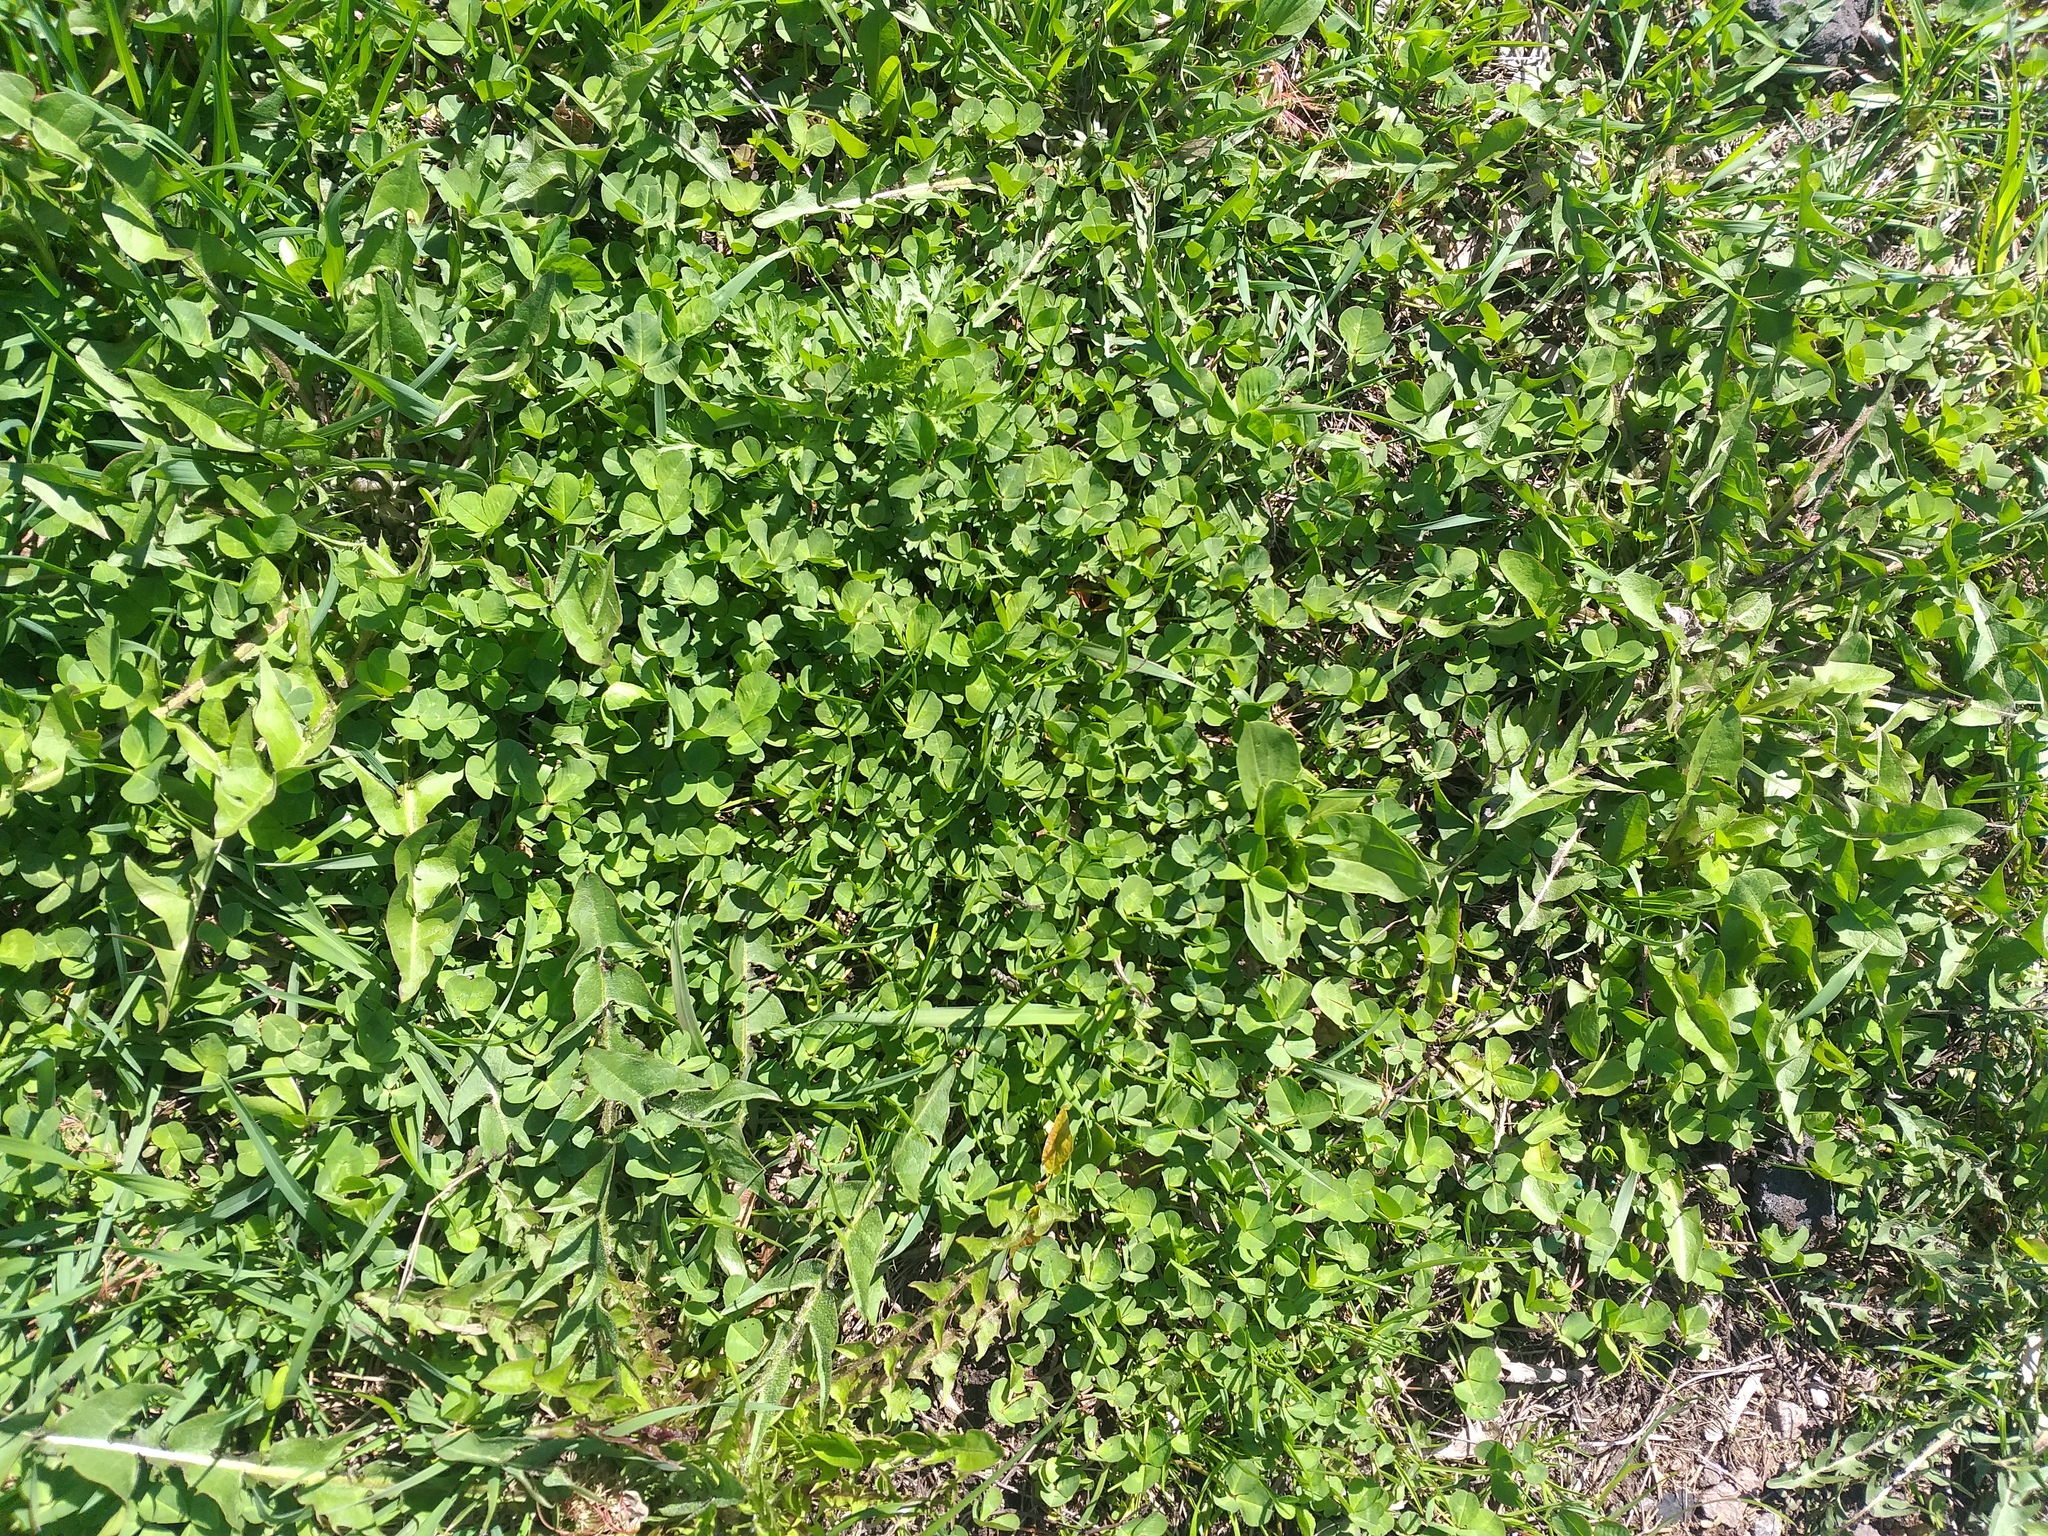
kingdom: Plantae
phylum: Tracheophyta
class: Magnoliopsida
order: Fabales
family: Fabaceae
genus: Trifolium
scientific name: Trifolium repens
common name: White clover
